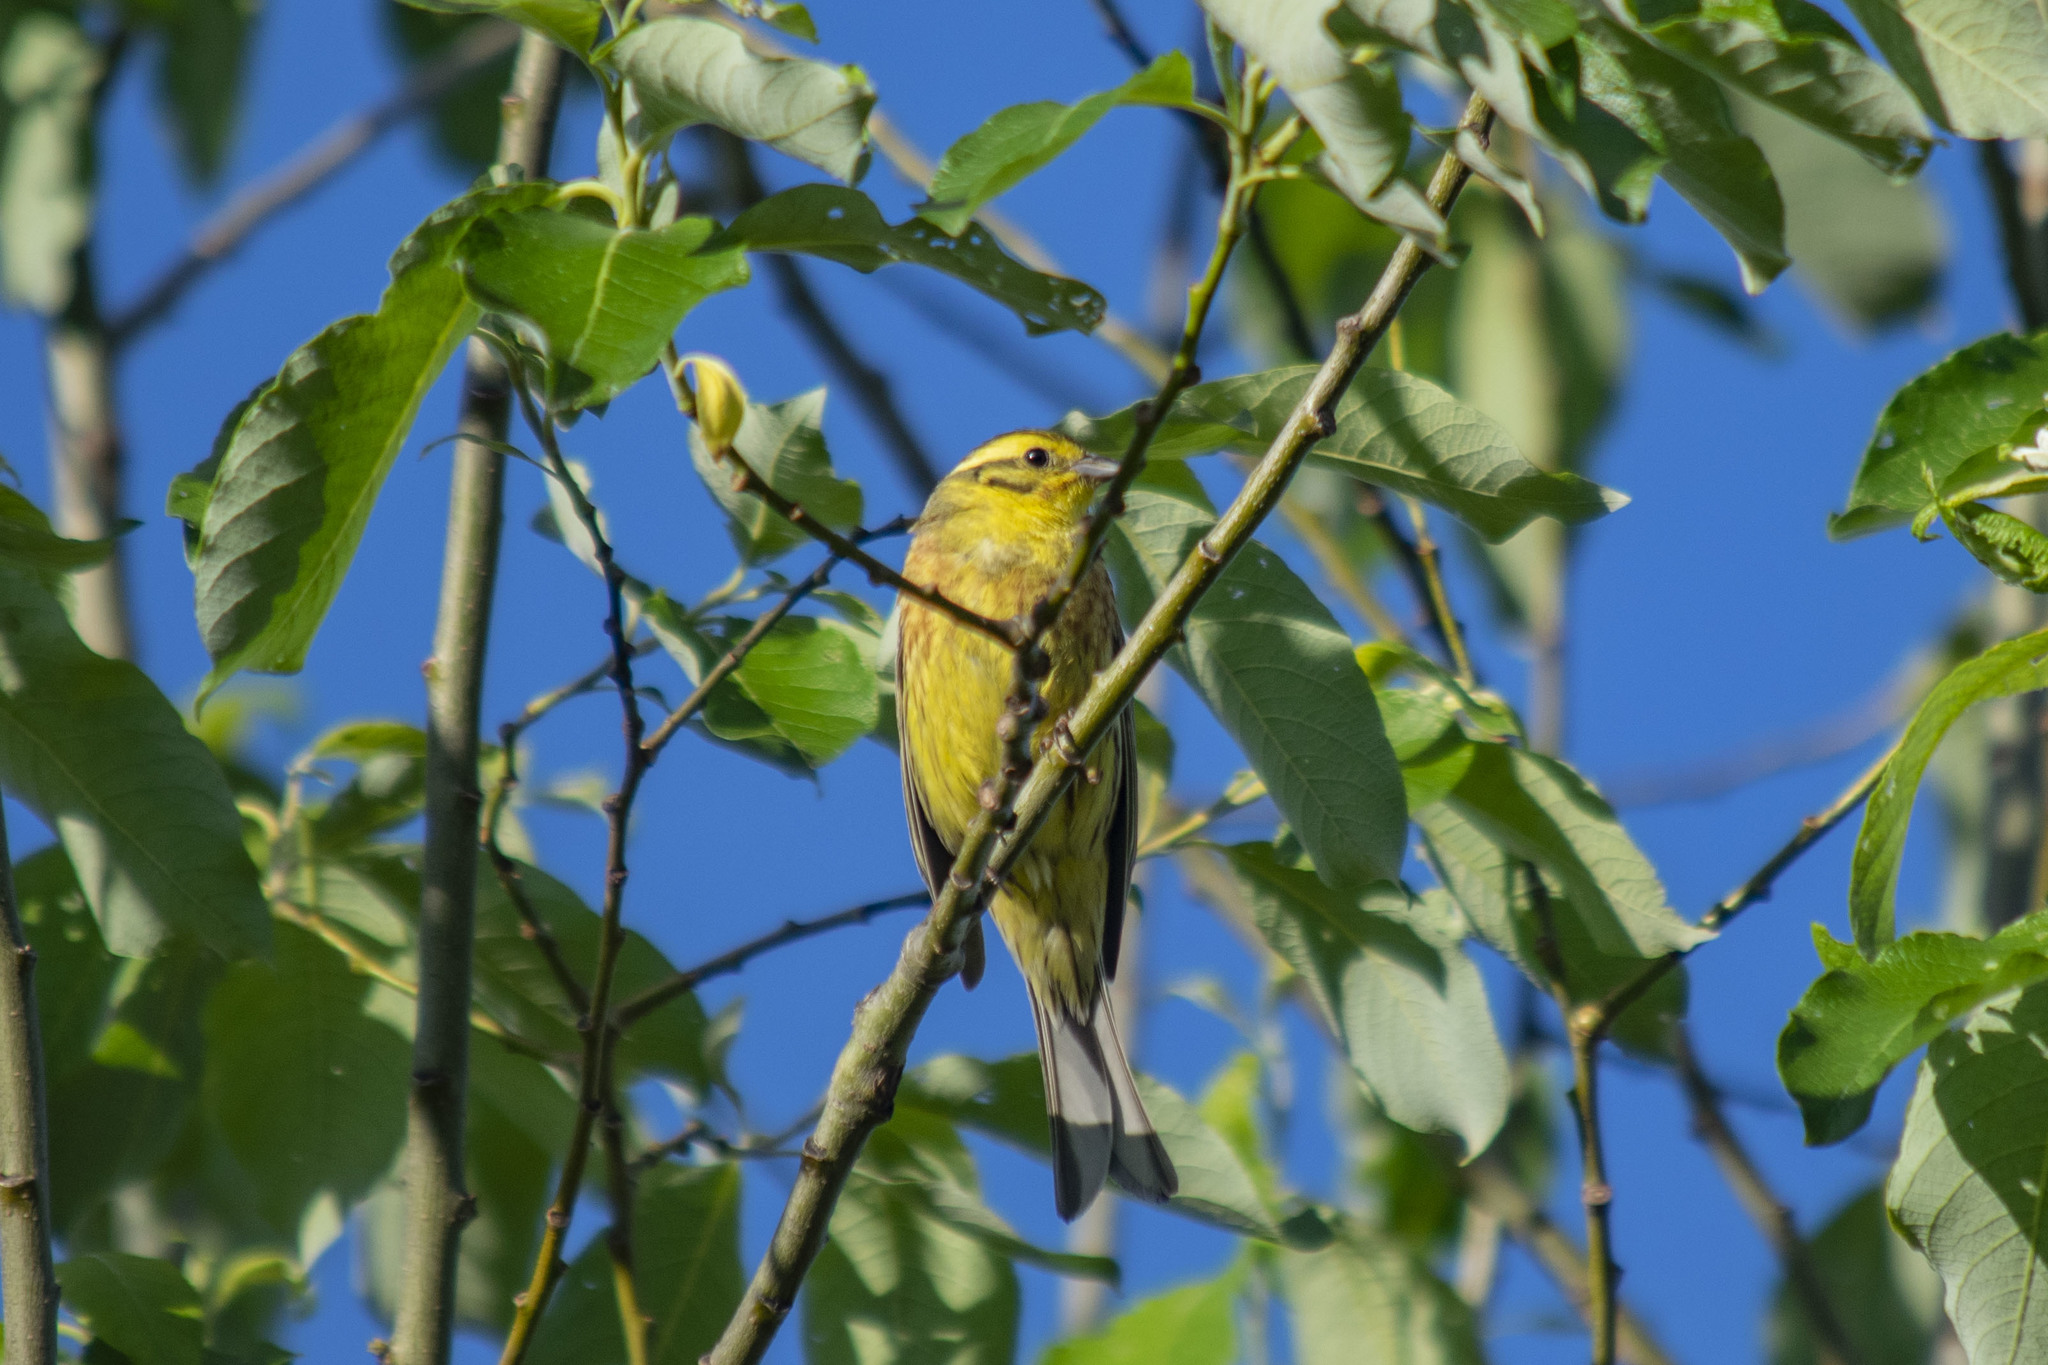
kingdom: Animalia
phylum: Chordata
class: Aves
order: Passeriformes
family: Emberizidae
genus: Emberiza
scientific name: Emberiza citrinella
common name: Yellowhammer
